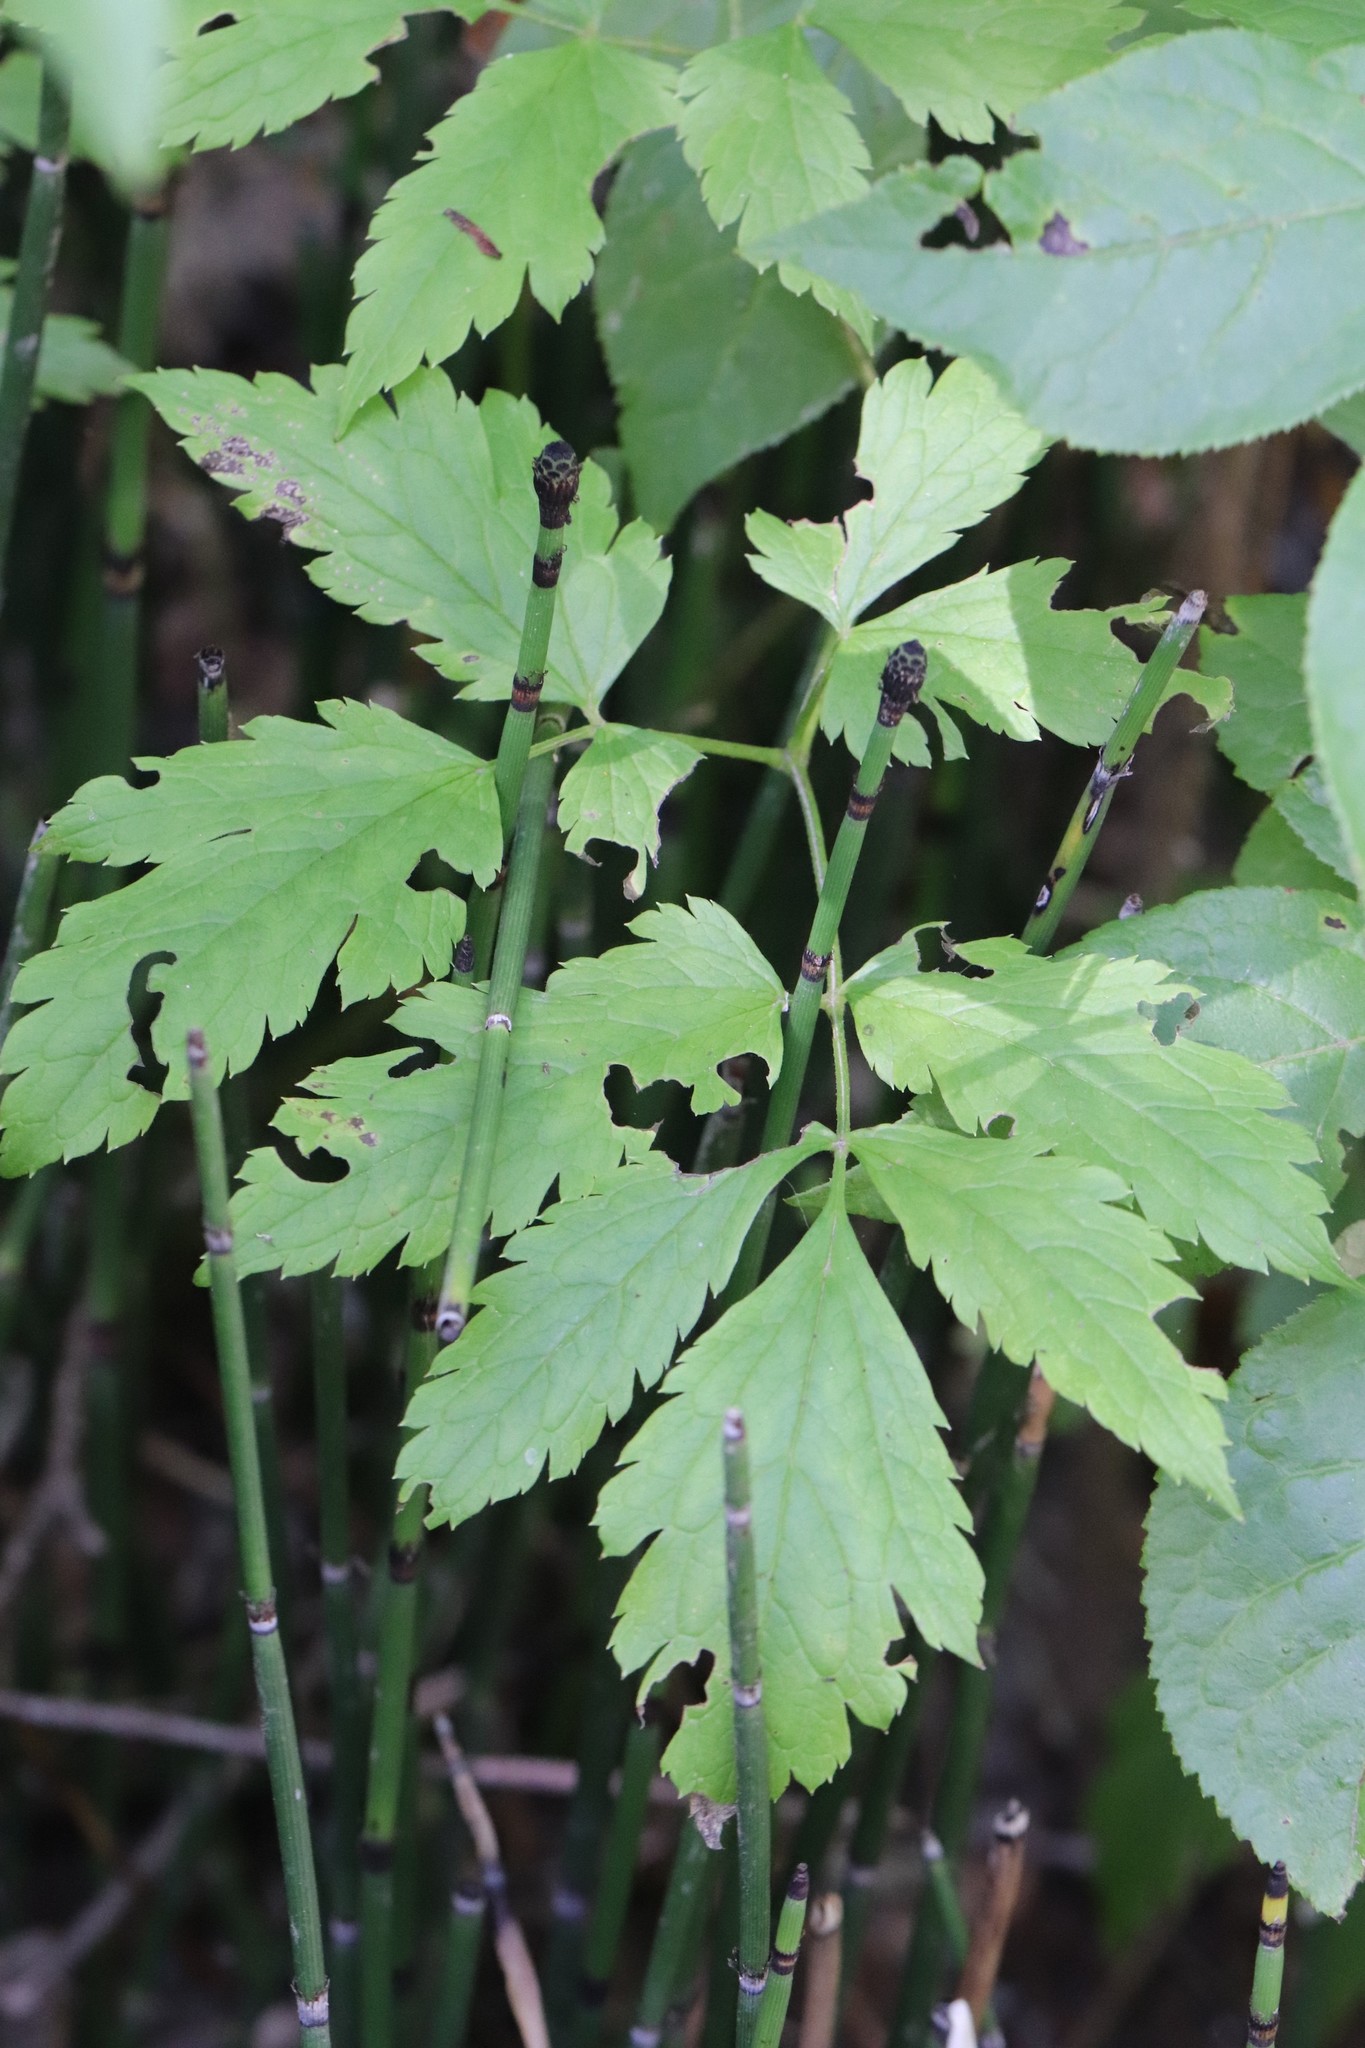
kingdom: Plantae
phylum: Tracheophyta
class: Magnoliopsida
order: Ranunculales
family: Ranunculaceae
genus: Actaea
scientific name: Actaea simplex
